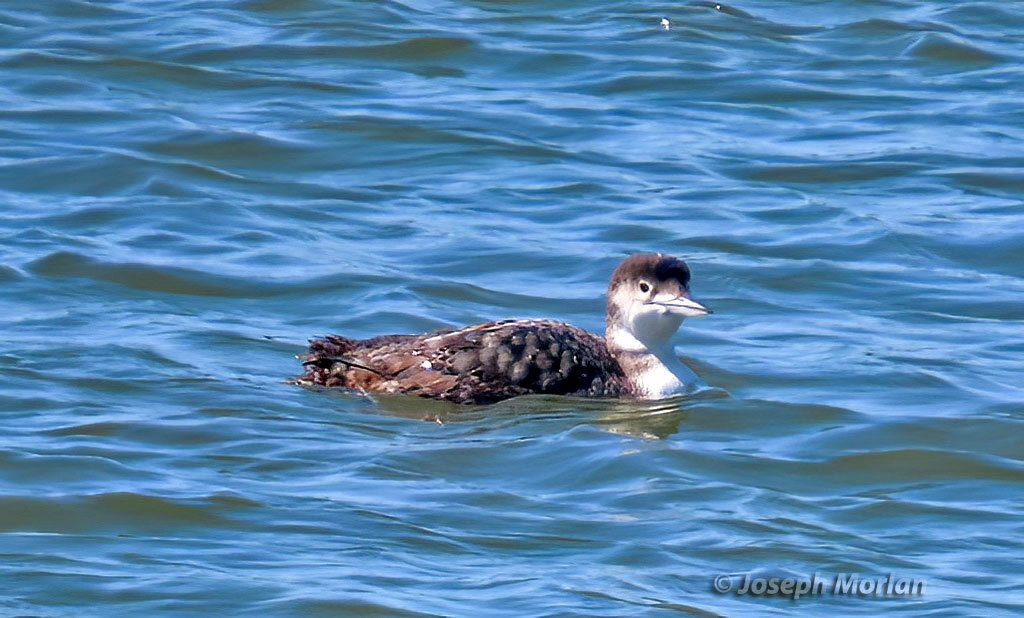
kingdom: Animalia
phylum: Chordata
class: Aves
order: Gaviiformes
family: Gaviidae
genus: Gavia
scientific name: Gavia immer
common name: Common loon
